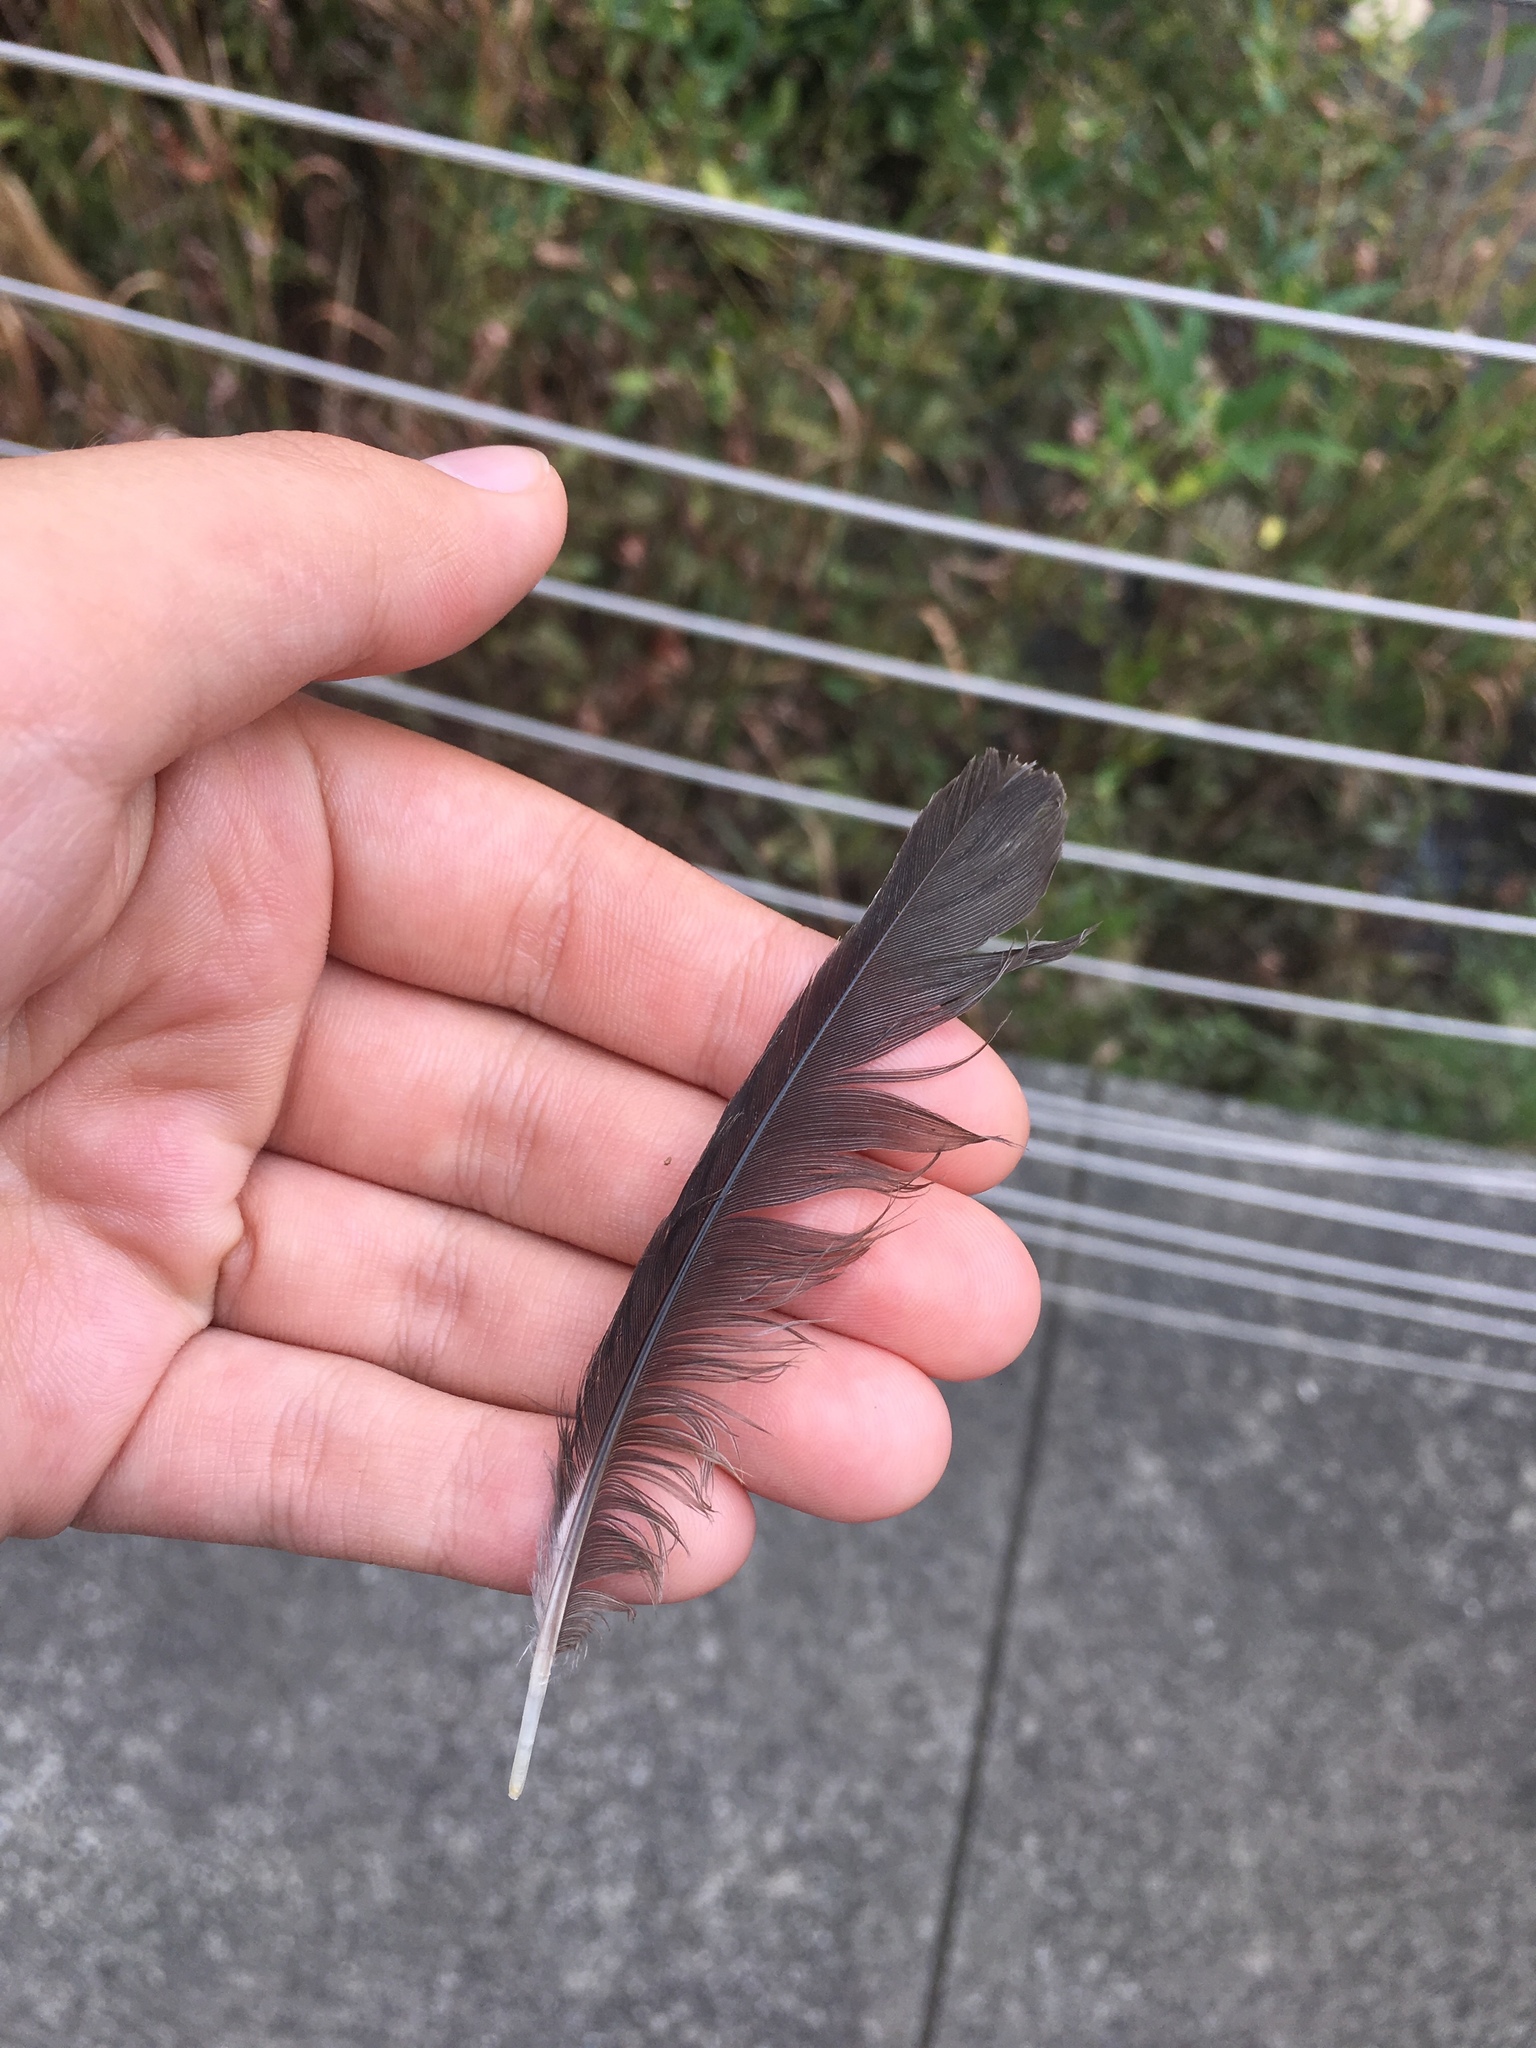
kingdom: Animalia
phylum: Chordata
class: Aves
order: Passeriformes
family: Mimidae
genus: Mimus
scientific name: Mimus polyglottos
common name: Northern mockingbird
